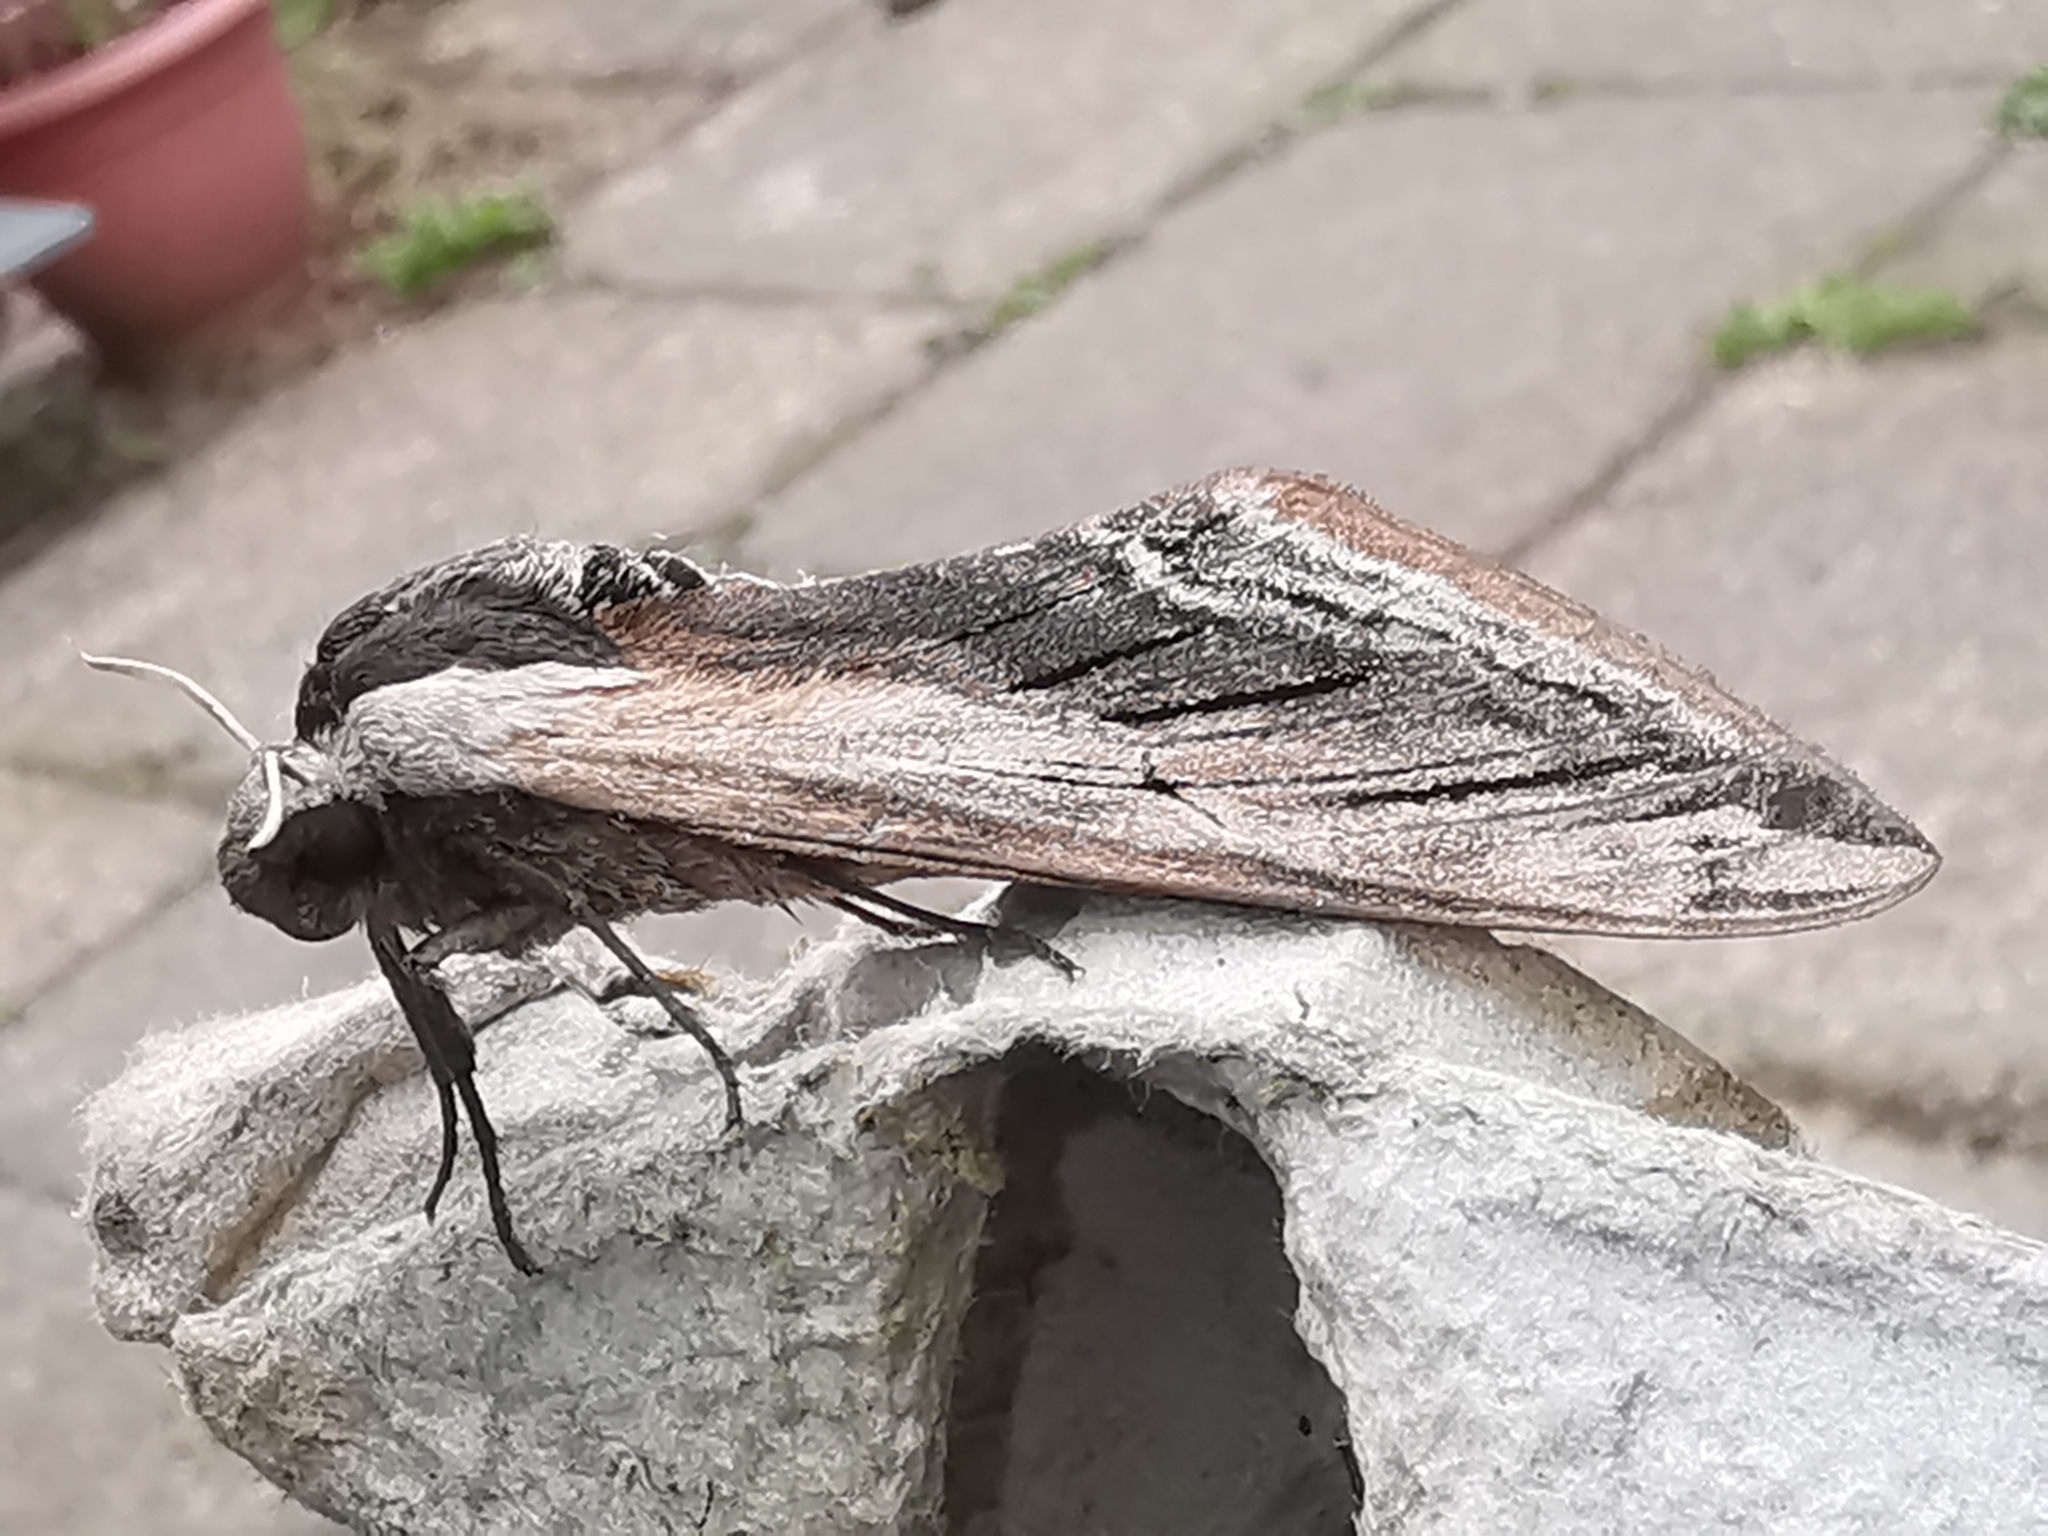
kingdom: Animalia
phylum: Arthropoda
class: Insecta
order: Lepidoptera
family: Sphingidae
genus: Sphinx
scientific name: Sphinx ligustri
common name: Privet hawk-moth
